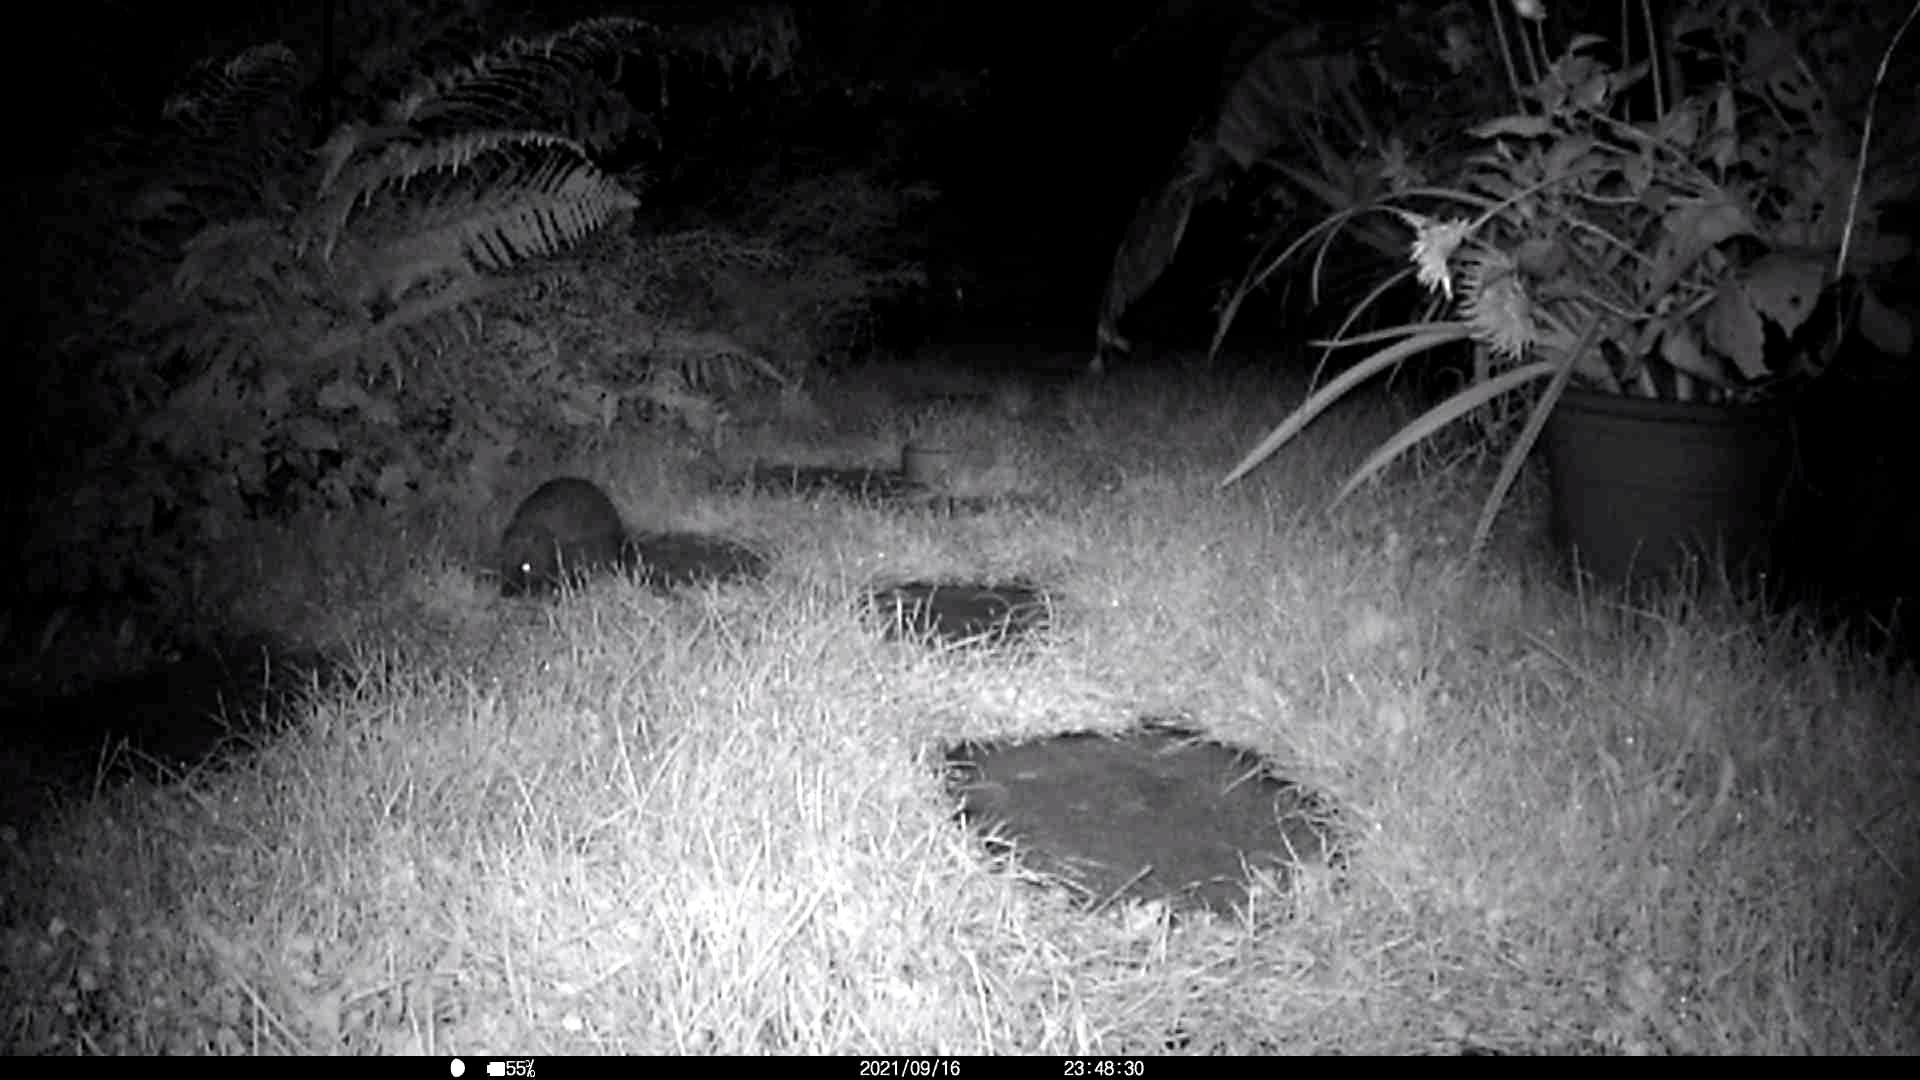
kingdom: Animalia
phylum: Chordata
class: Mammalia
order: Erinaceomorpha
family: Erinaceidae
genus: Erinaceus
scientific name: Erinaceus europaeus
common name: West european hedgehog
